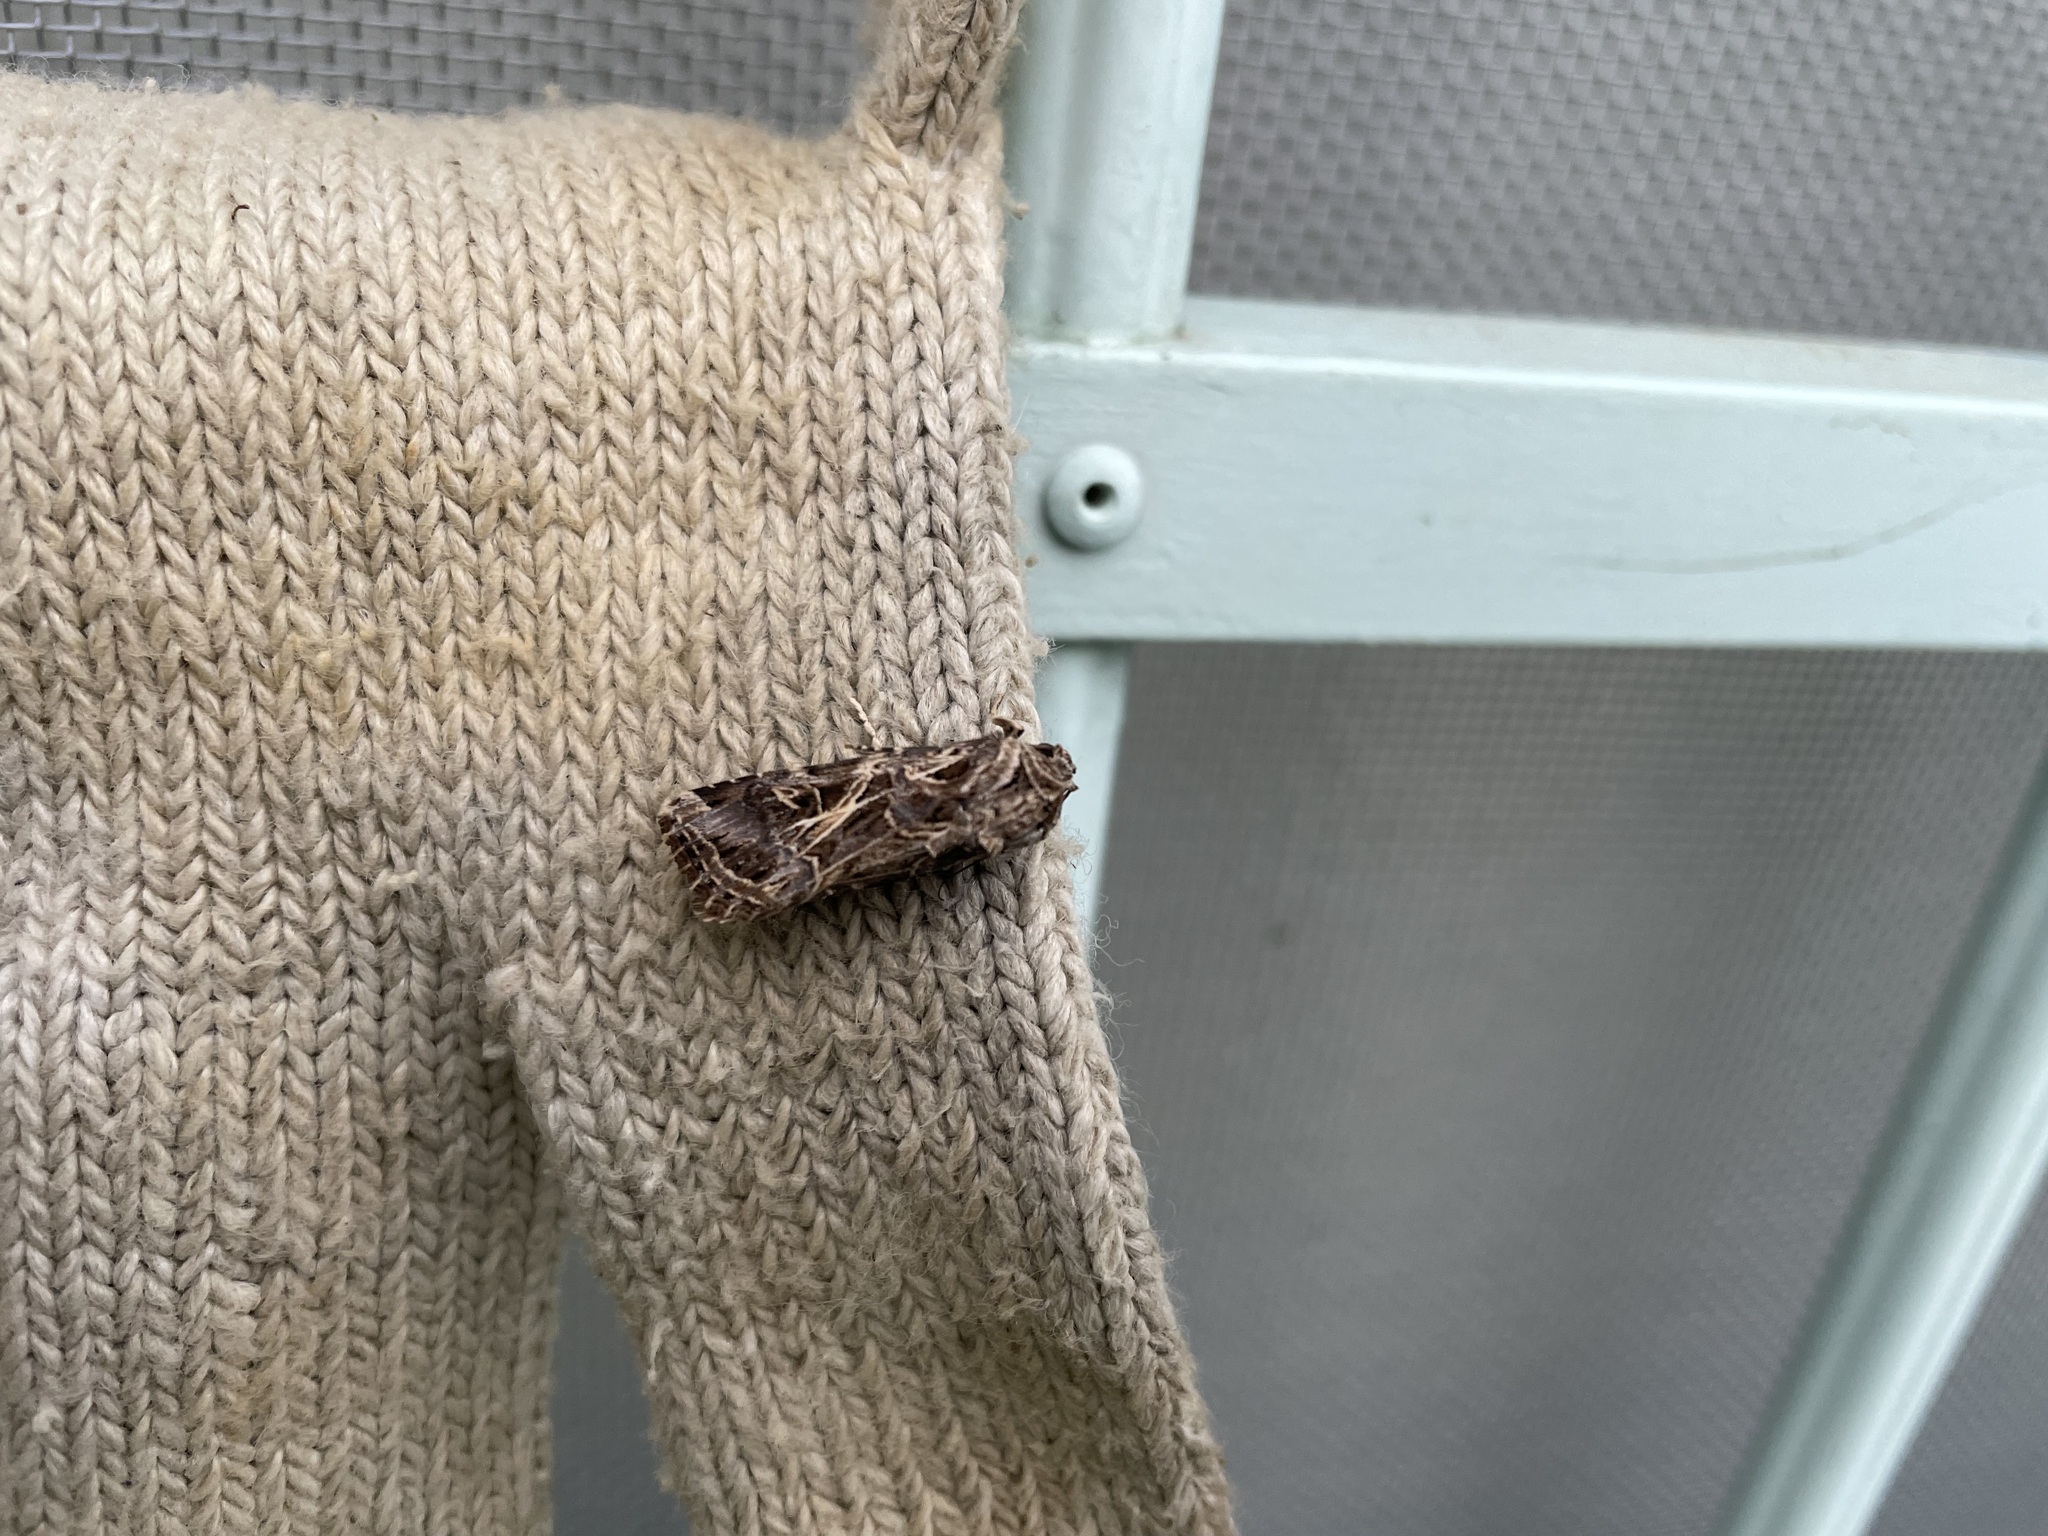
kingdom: Animalia
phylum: Arthropoda
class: Insecta
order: Lepidoptera
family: Noctuidae
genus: Spodoptera
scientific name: Spodoptera litura
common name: Asian cotton leafworm
